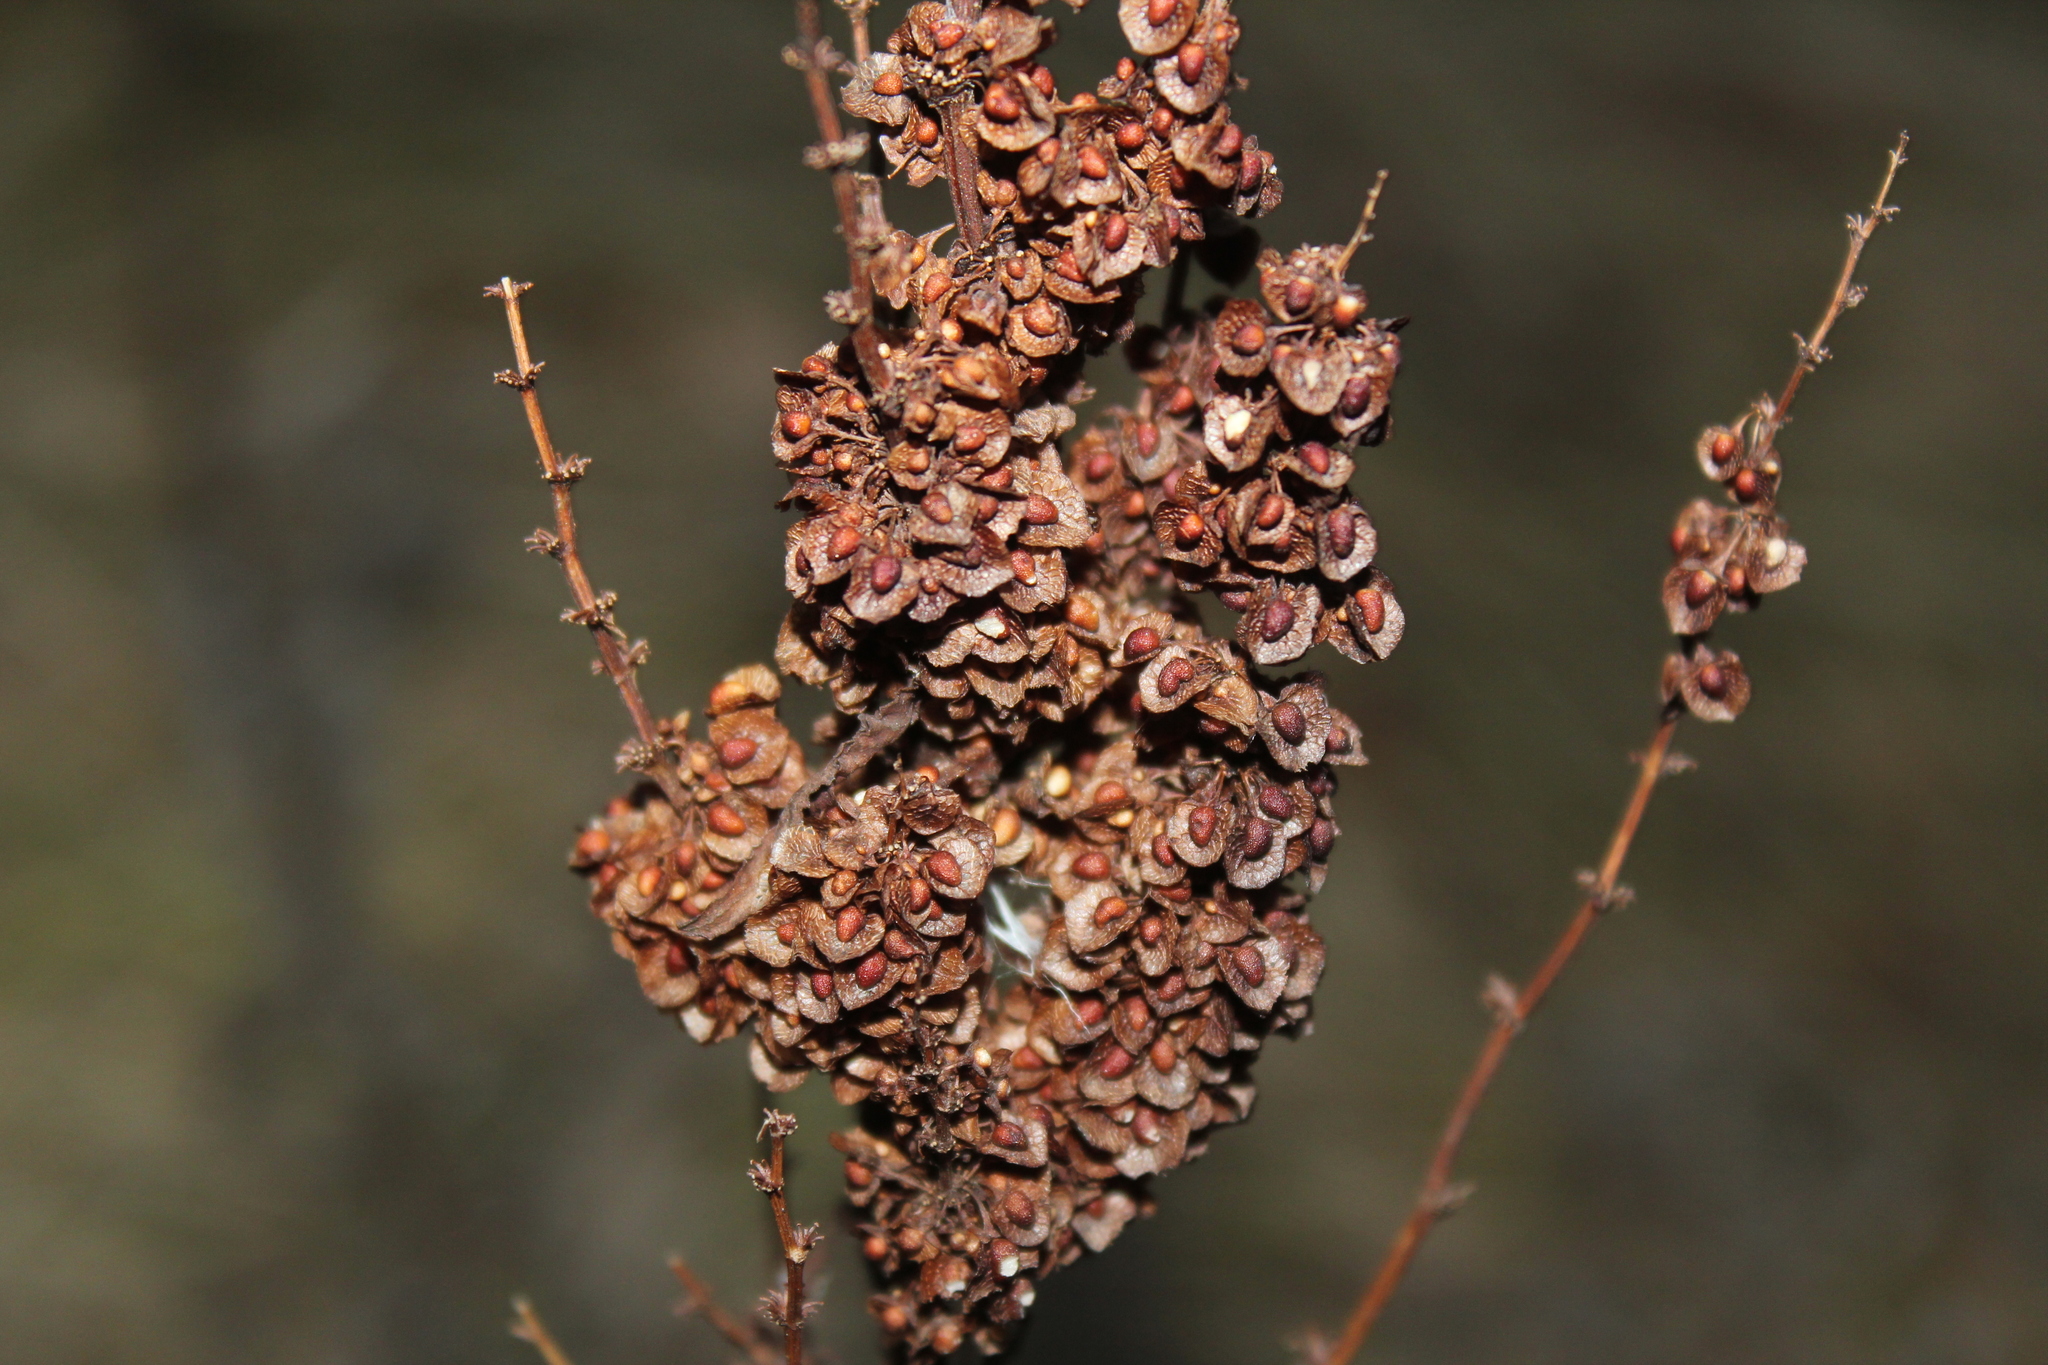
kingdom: Plantae
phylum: Tracheophyta
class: Magnoliopsida
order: Caryophyllales
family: Polygonaceae
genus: Rumex
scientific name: Rumex crispus
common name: Curled dock
